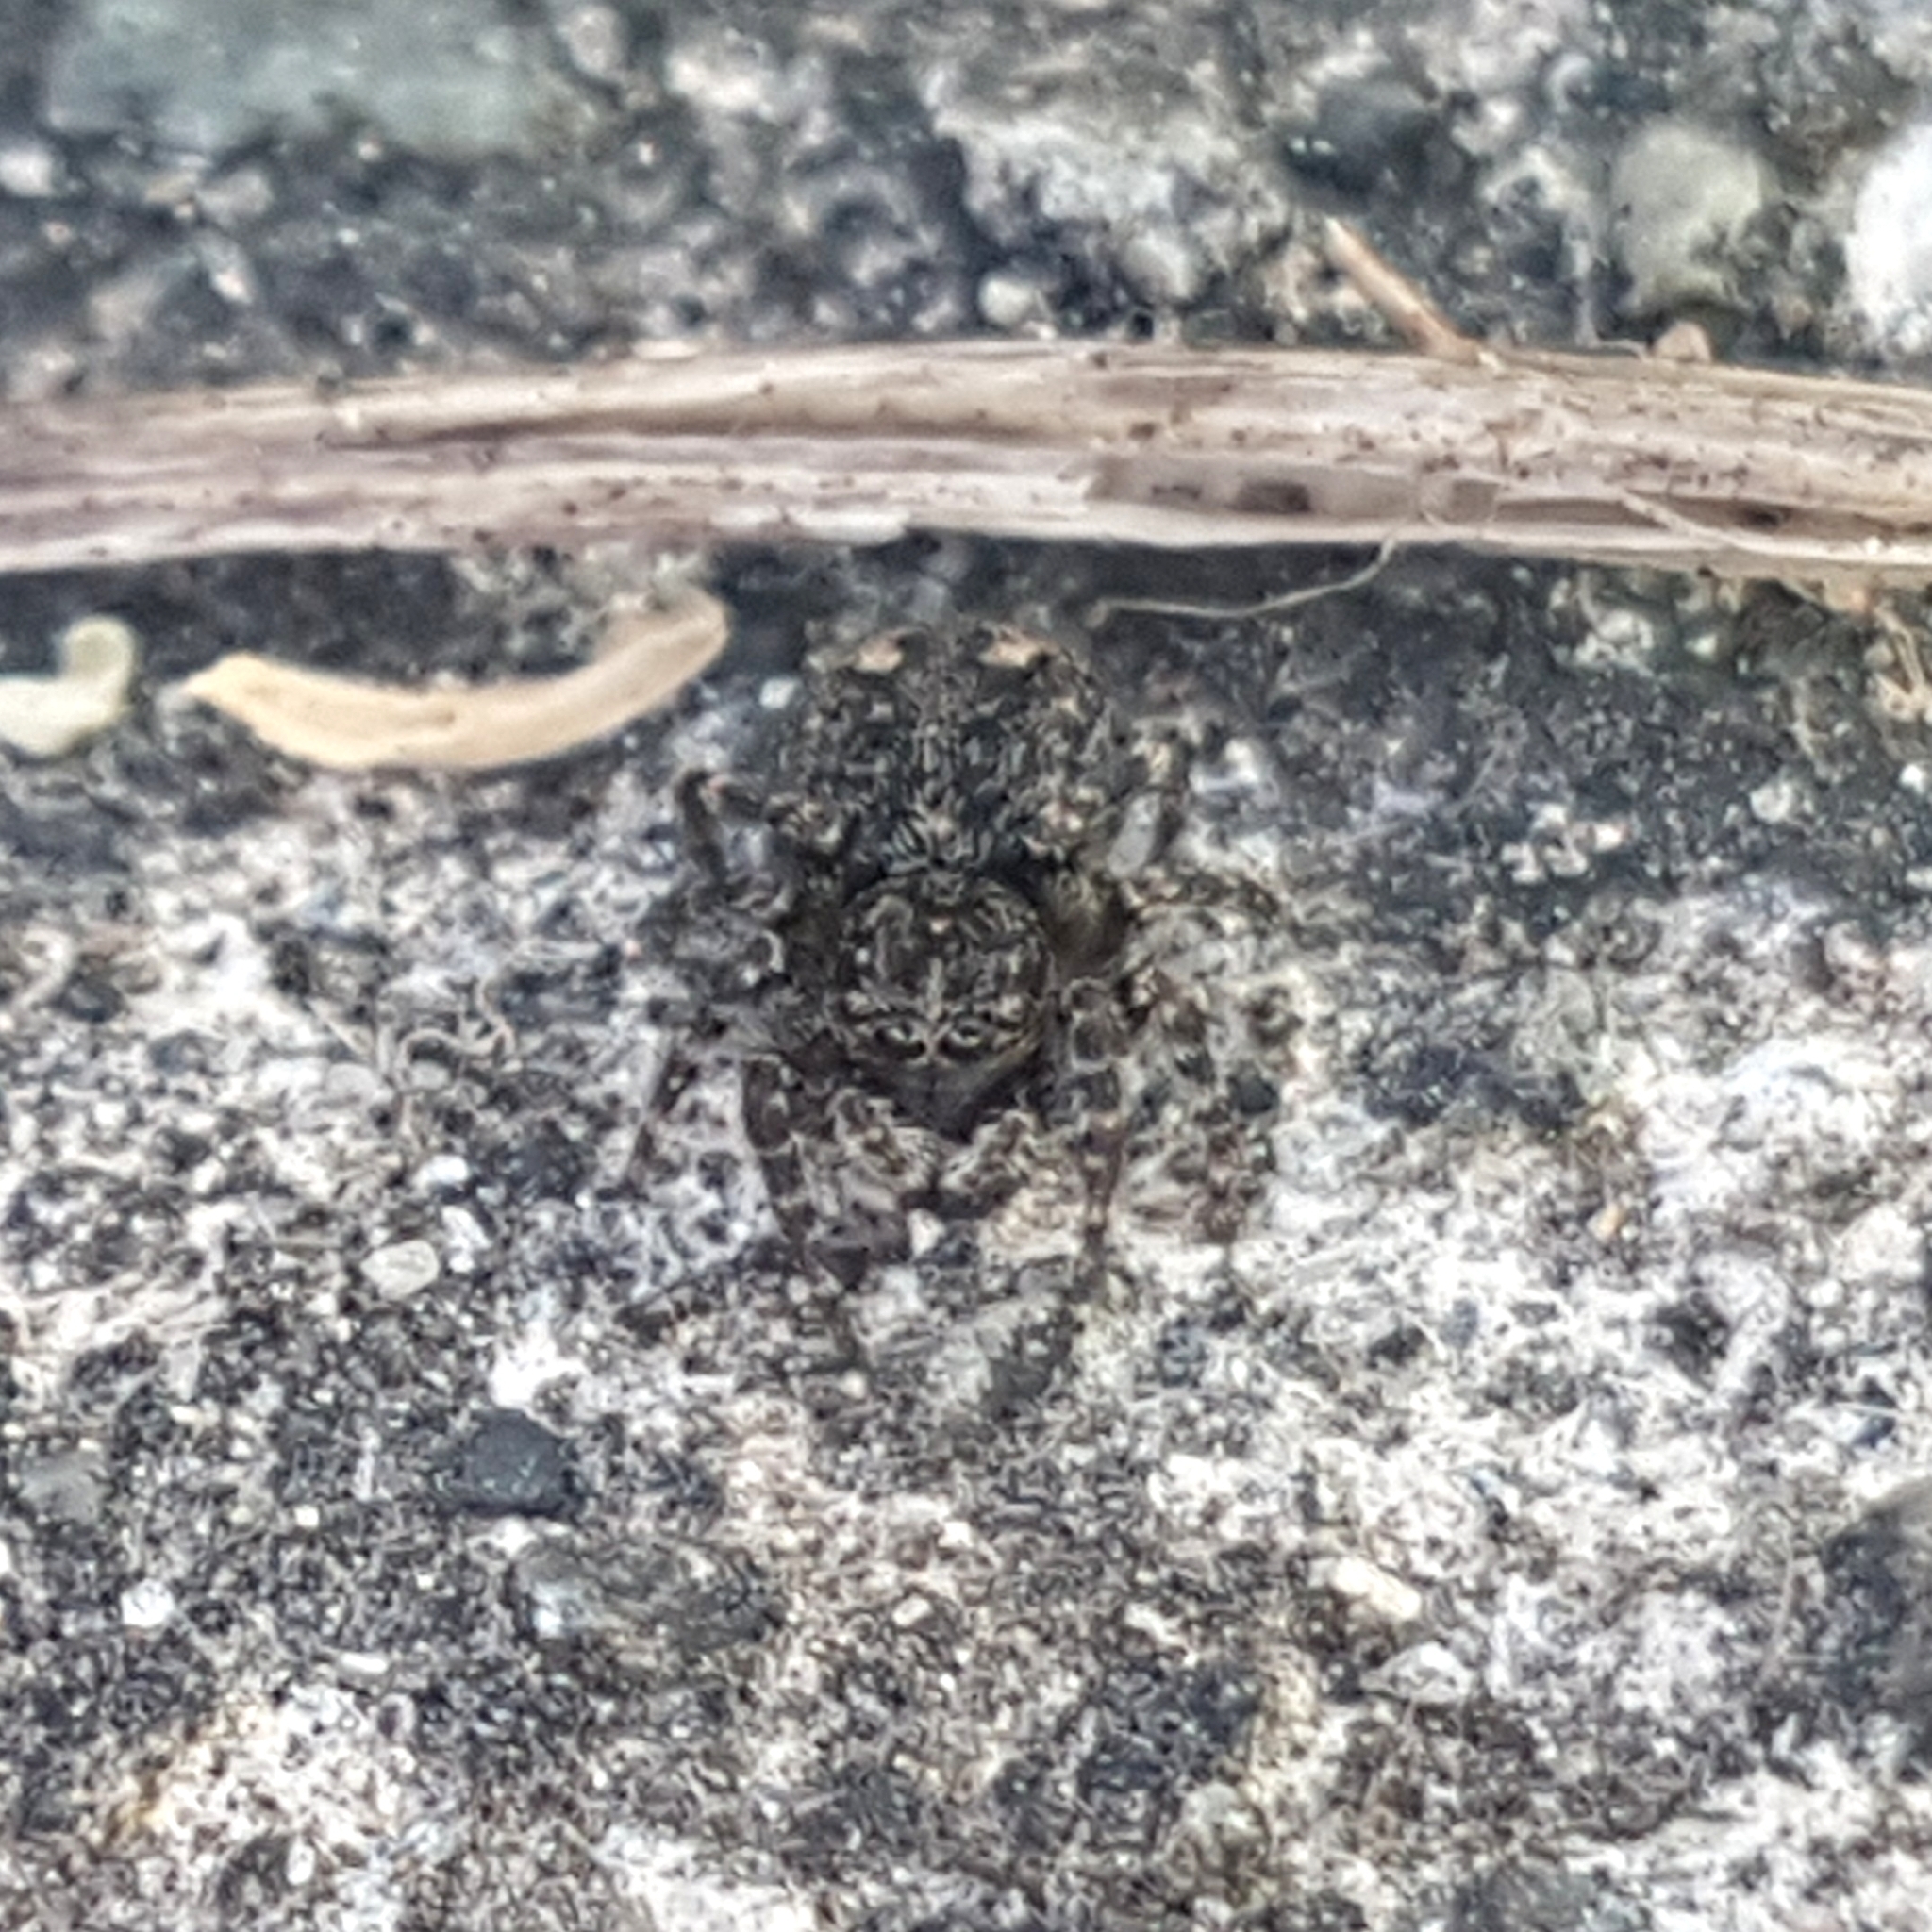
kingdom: Animalia
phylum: Arthropoda
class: Arachnida
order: Araneae
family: Salticidae
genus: Attulus
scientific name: Attulus pubescens
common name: Jumping spider
